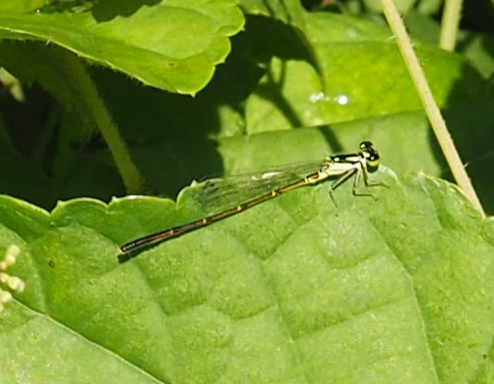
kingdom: Animalia
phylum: Arthropoda
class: Insecta
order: Odonata
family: Coenagrionidae
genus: Ischnura
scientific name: Ischnura posita
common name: Fragile forktail
